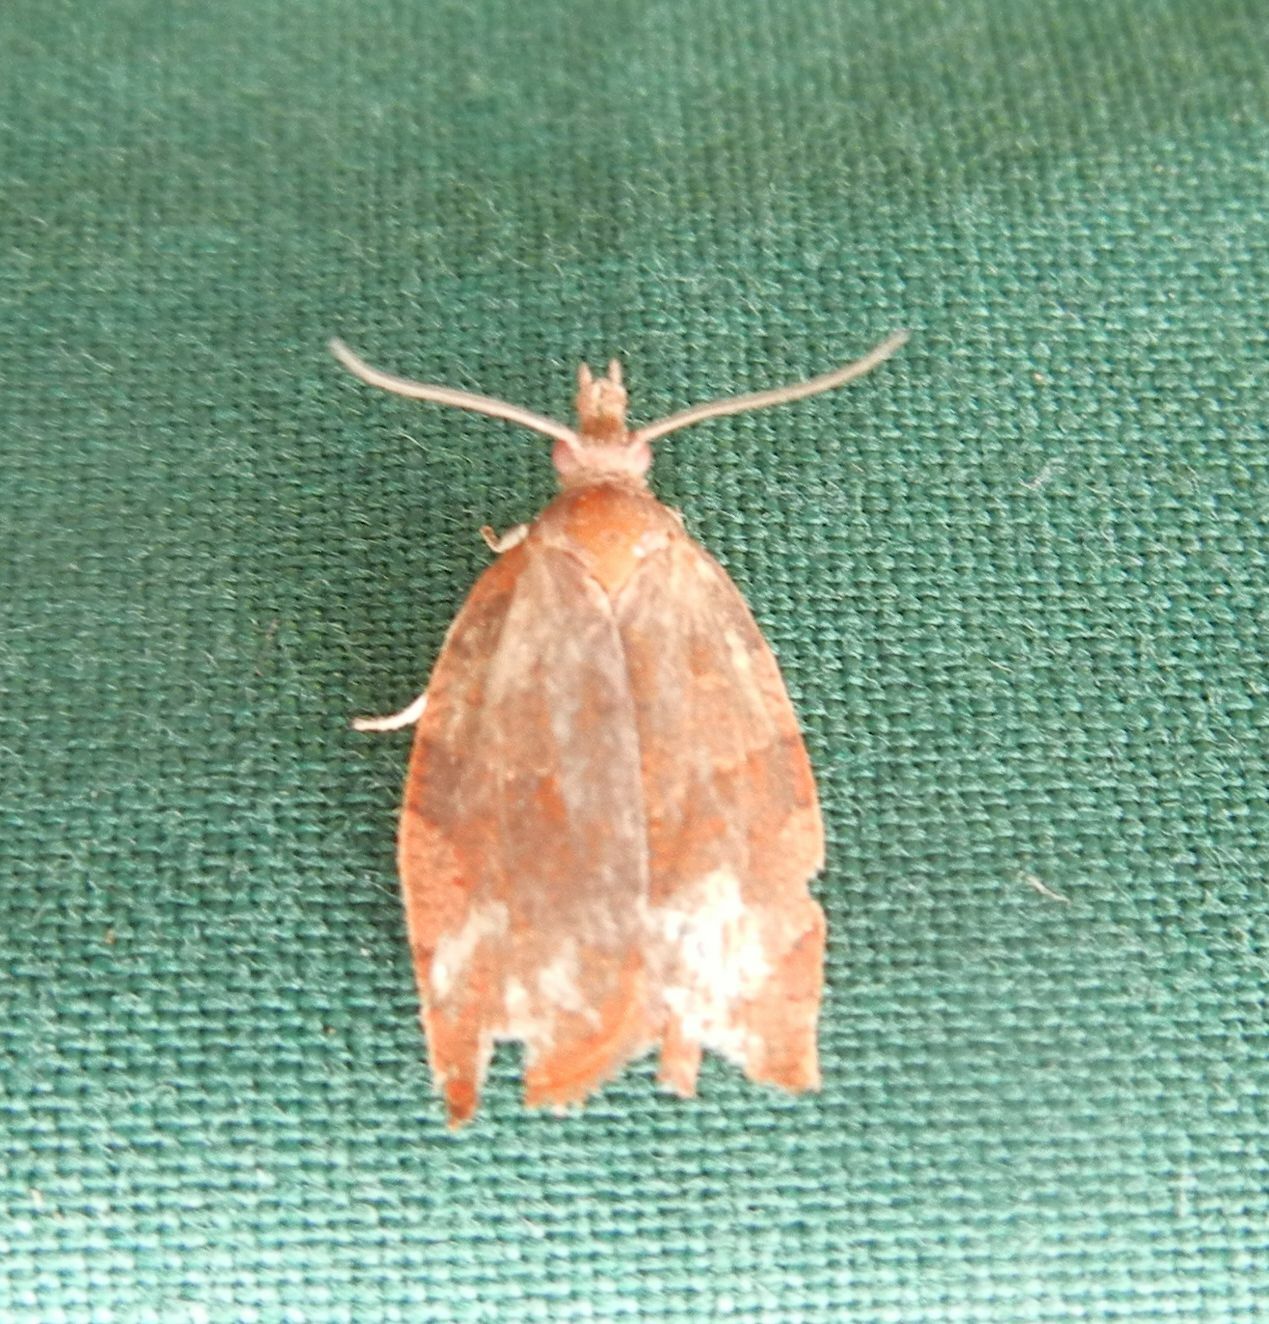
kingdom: Animalia
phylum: Arthropoda
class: Insecta
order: Lepidoptera
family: Tortricidae
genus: Pandemis
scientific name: Pandemis heparana
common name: Dark fruit-tree tortrix
